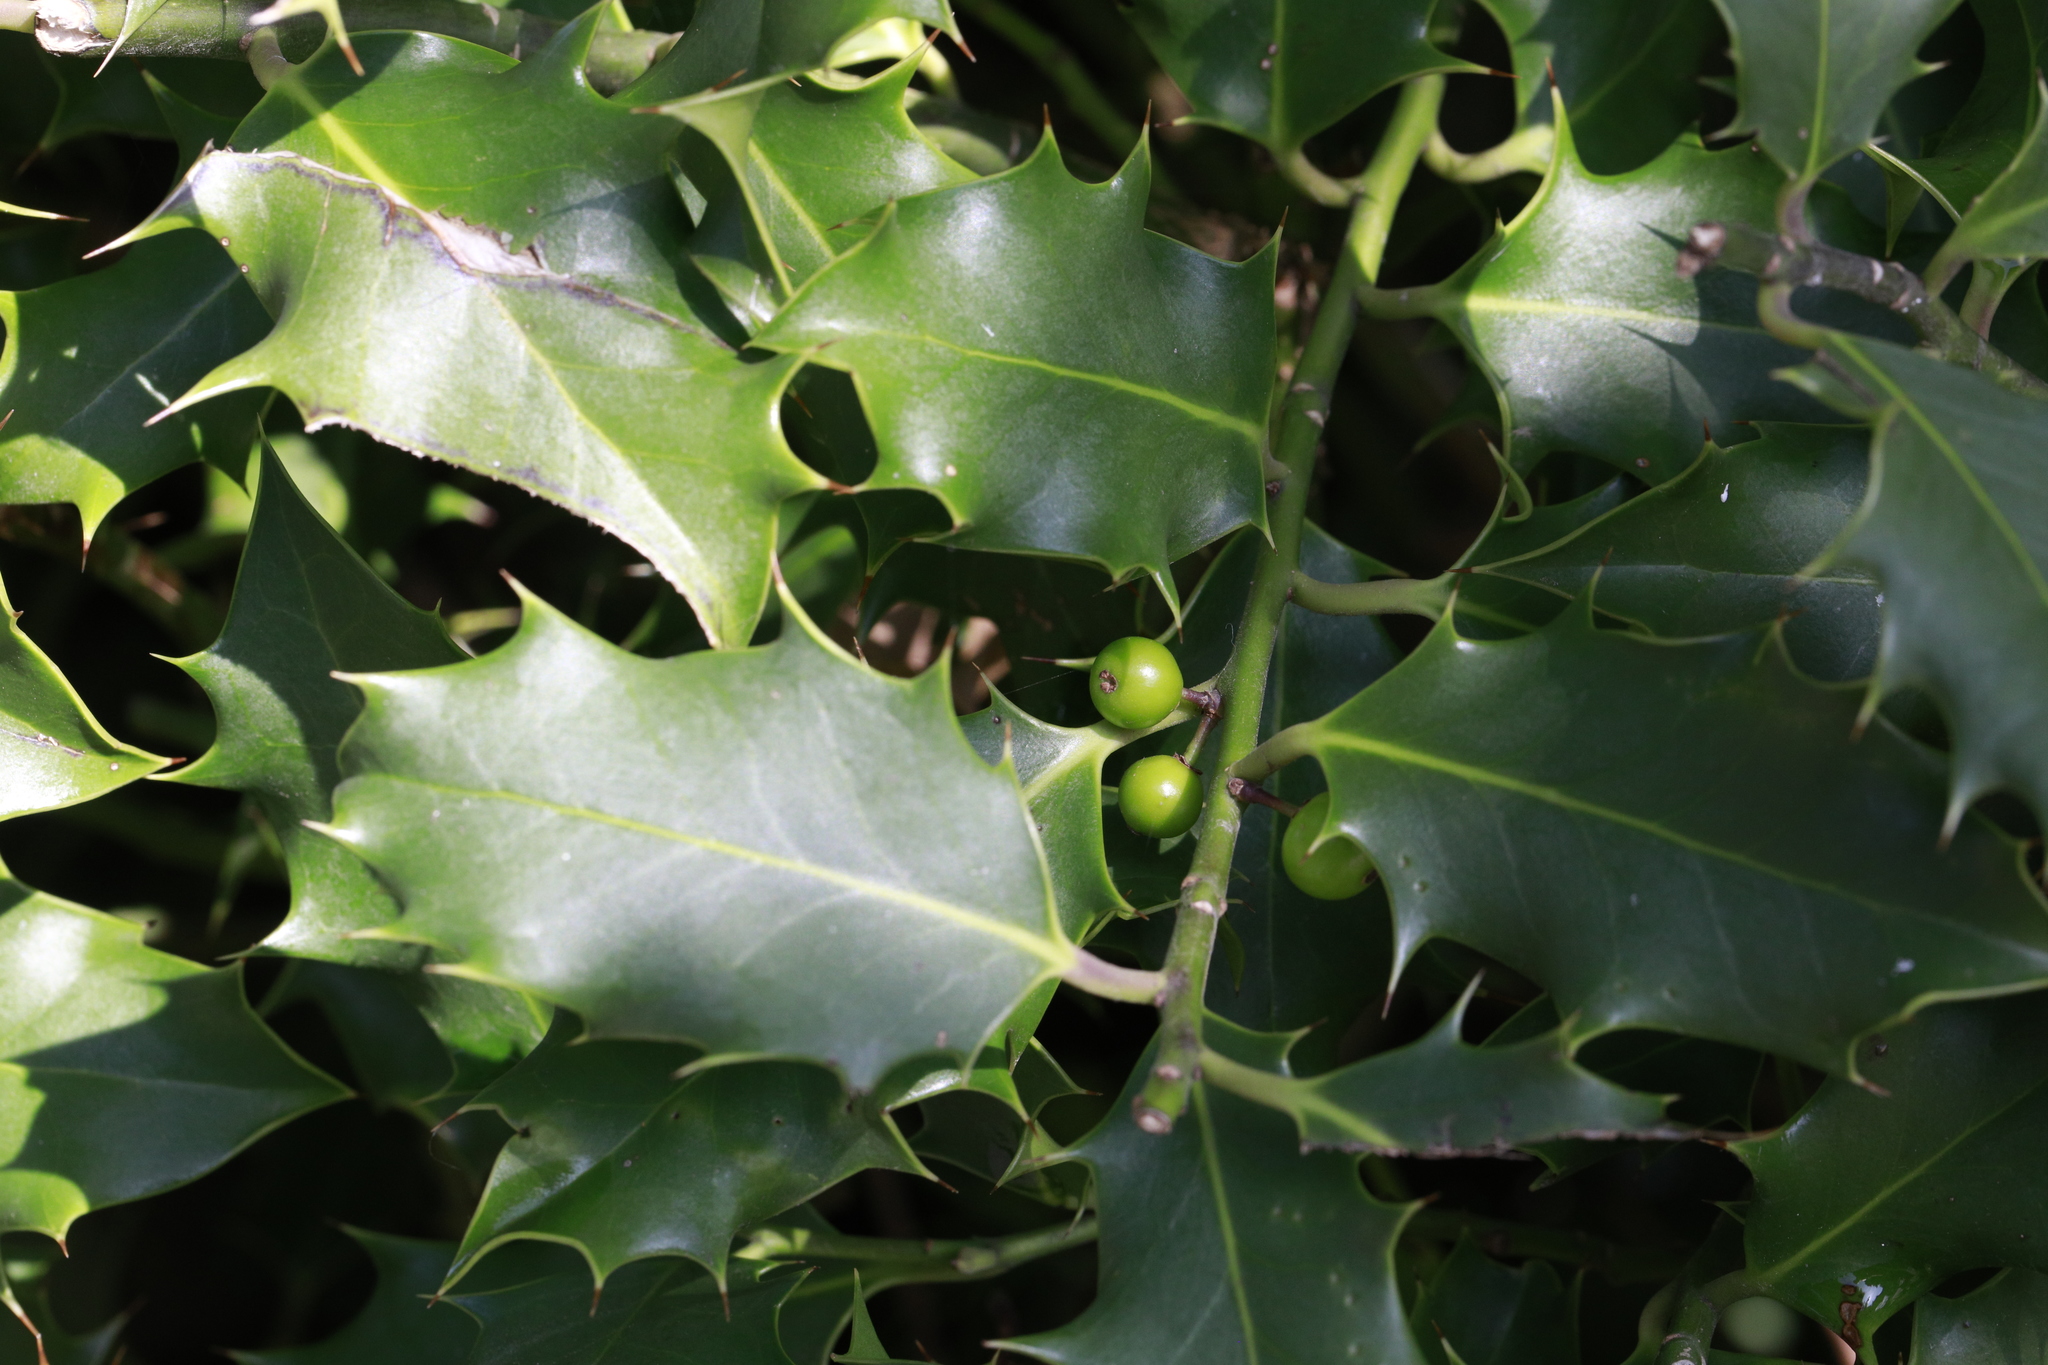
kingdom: Plantae
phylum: Tracheophyta
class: Magnoliopsida
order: Aquifoliales
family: Aquifoliaceae
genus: Ilex
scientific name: Ilex aquifolium
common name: English holly
